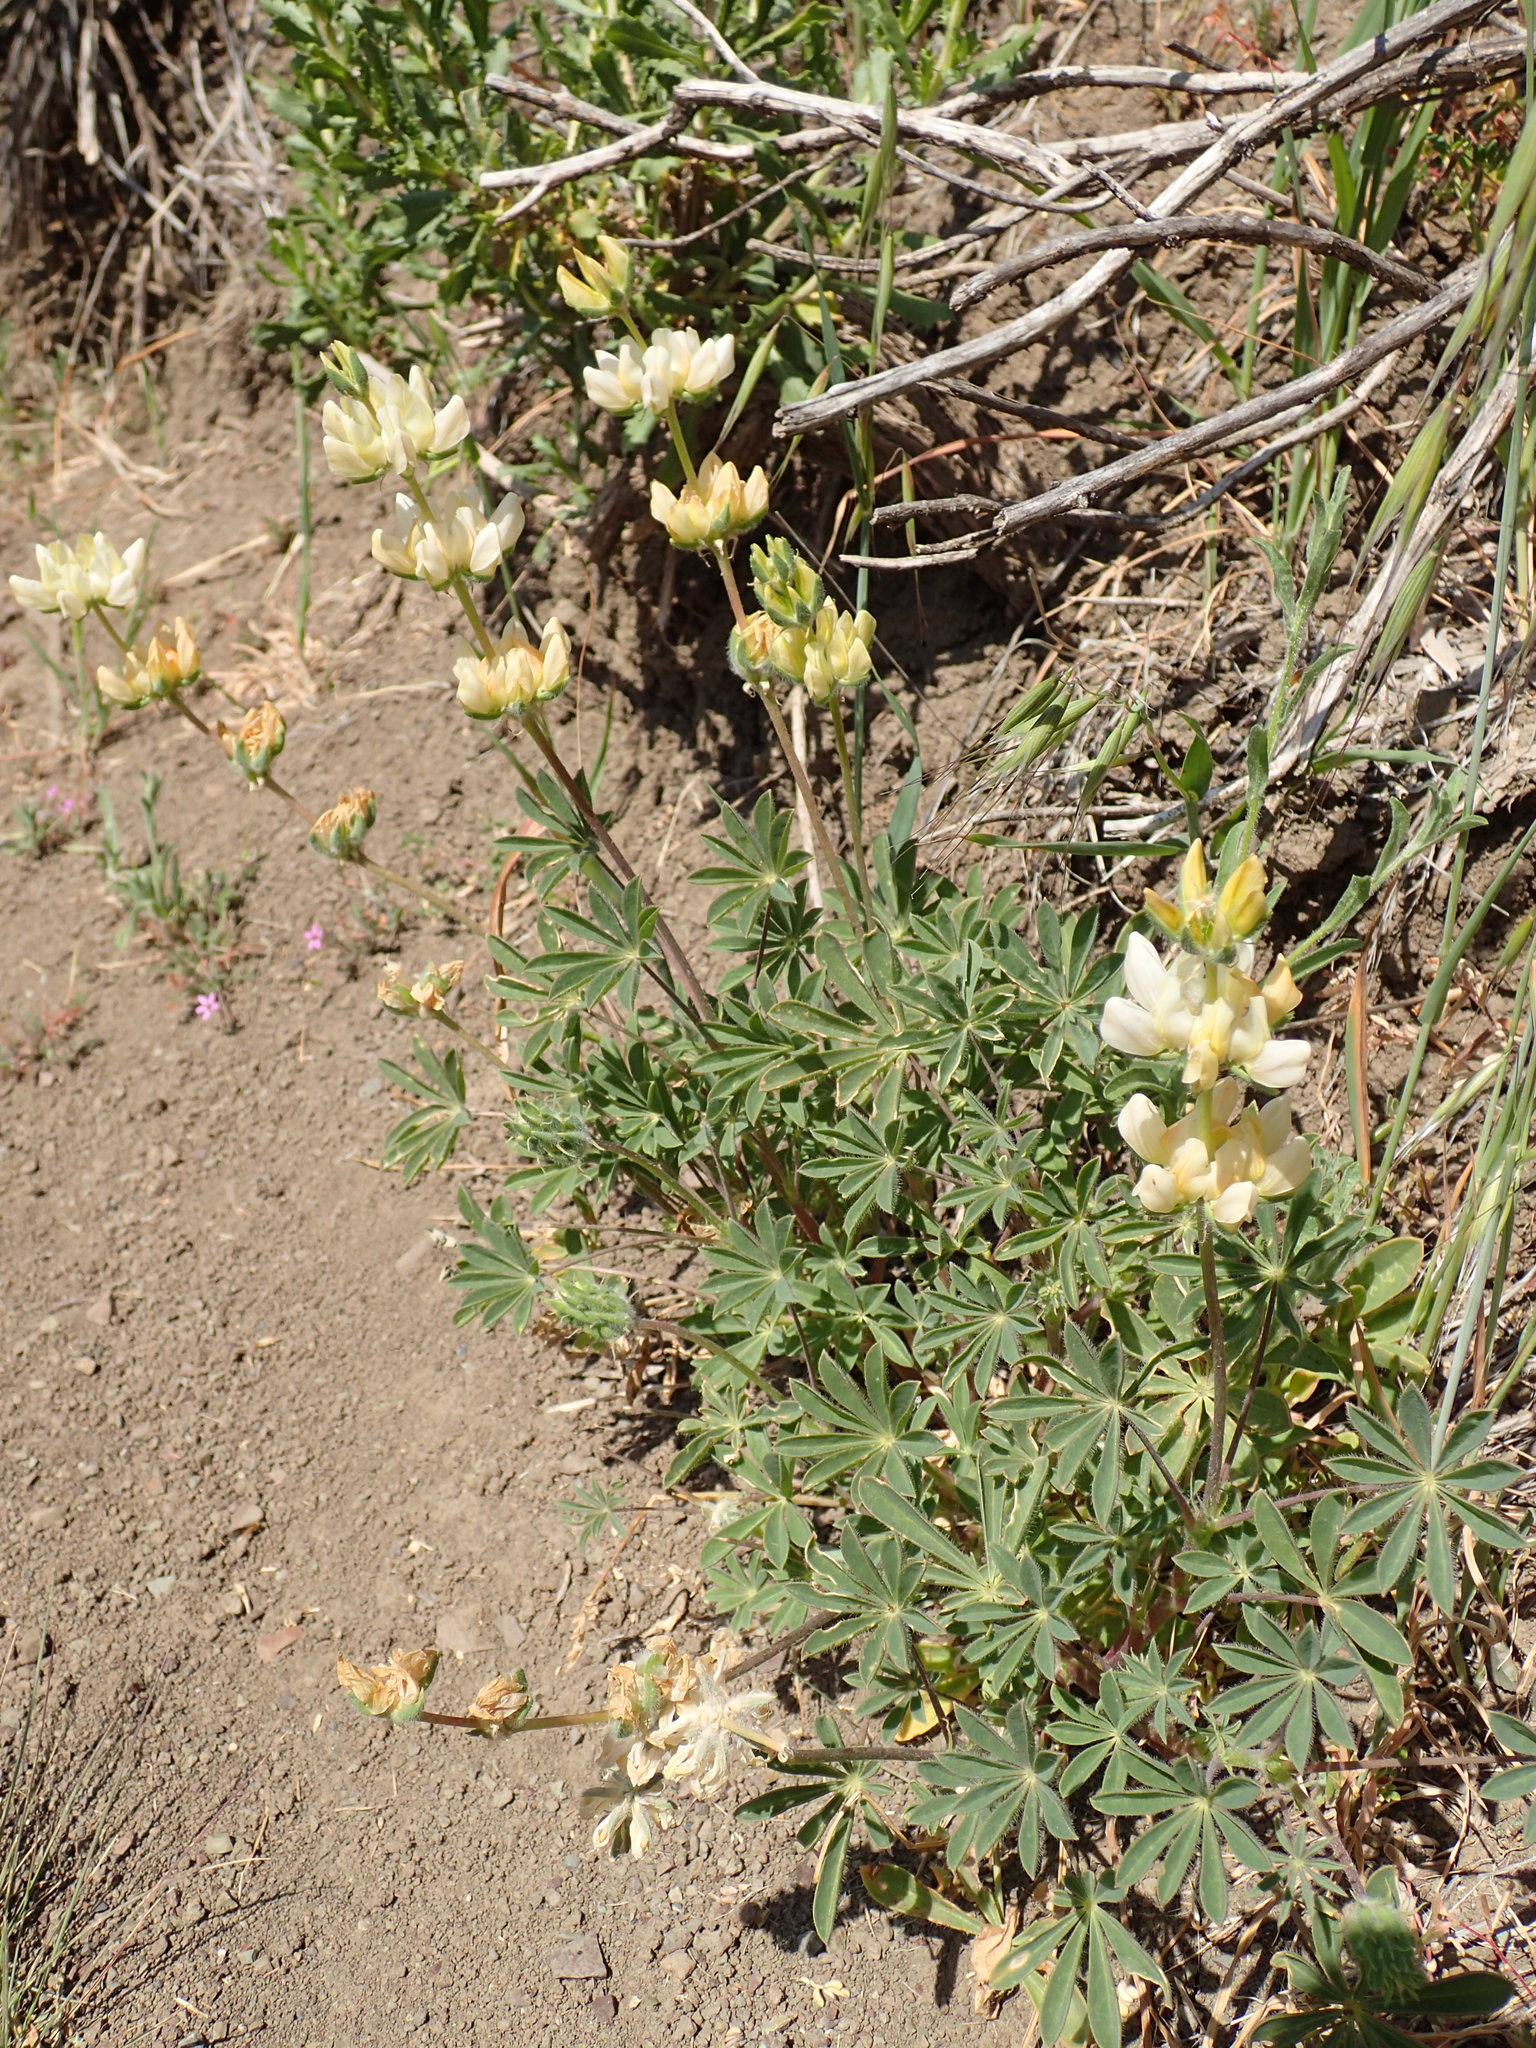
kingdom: Plantae
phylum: Tracheophyta
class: Magnoliopsida
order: Fabales
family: Fabaceae
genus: Lupinus
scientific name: Lupinus microcarpus
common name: Chick lupine
